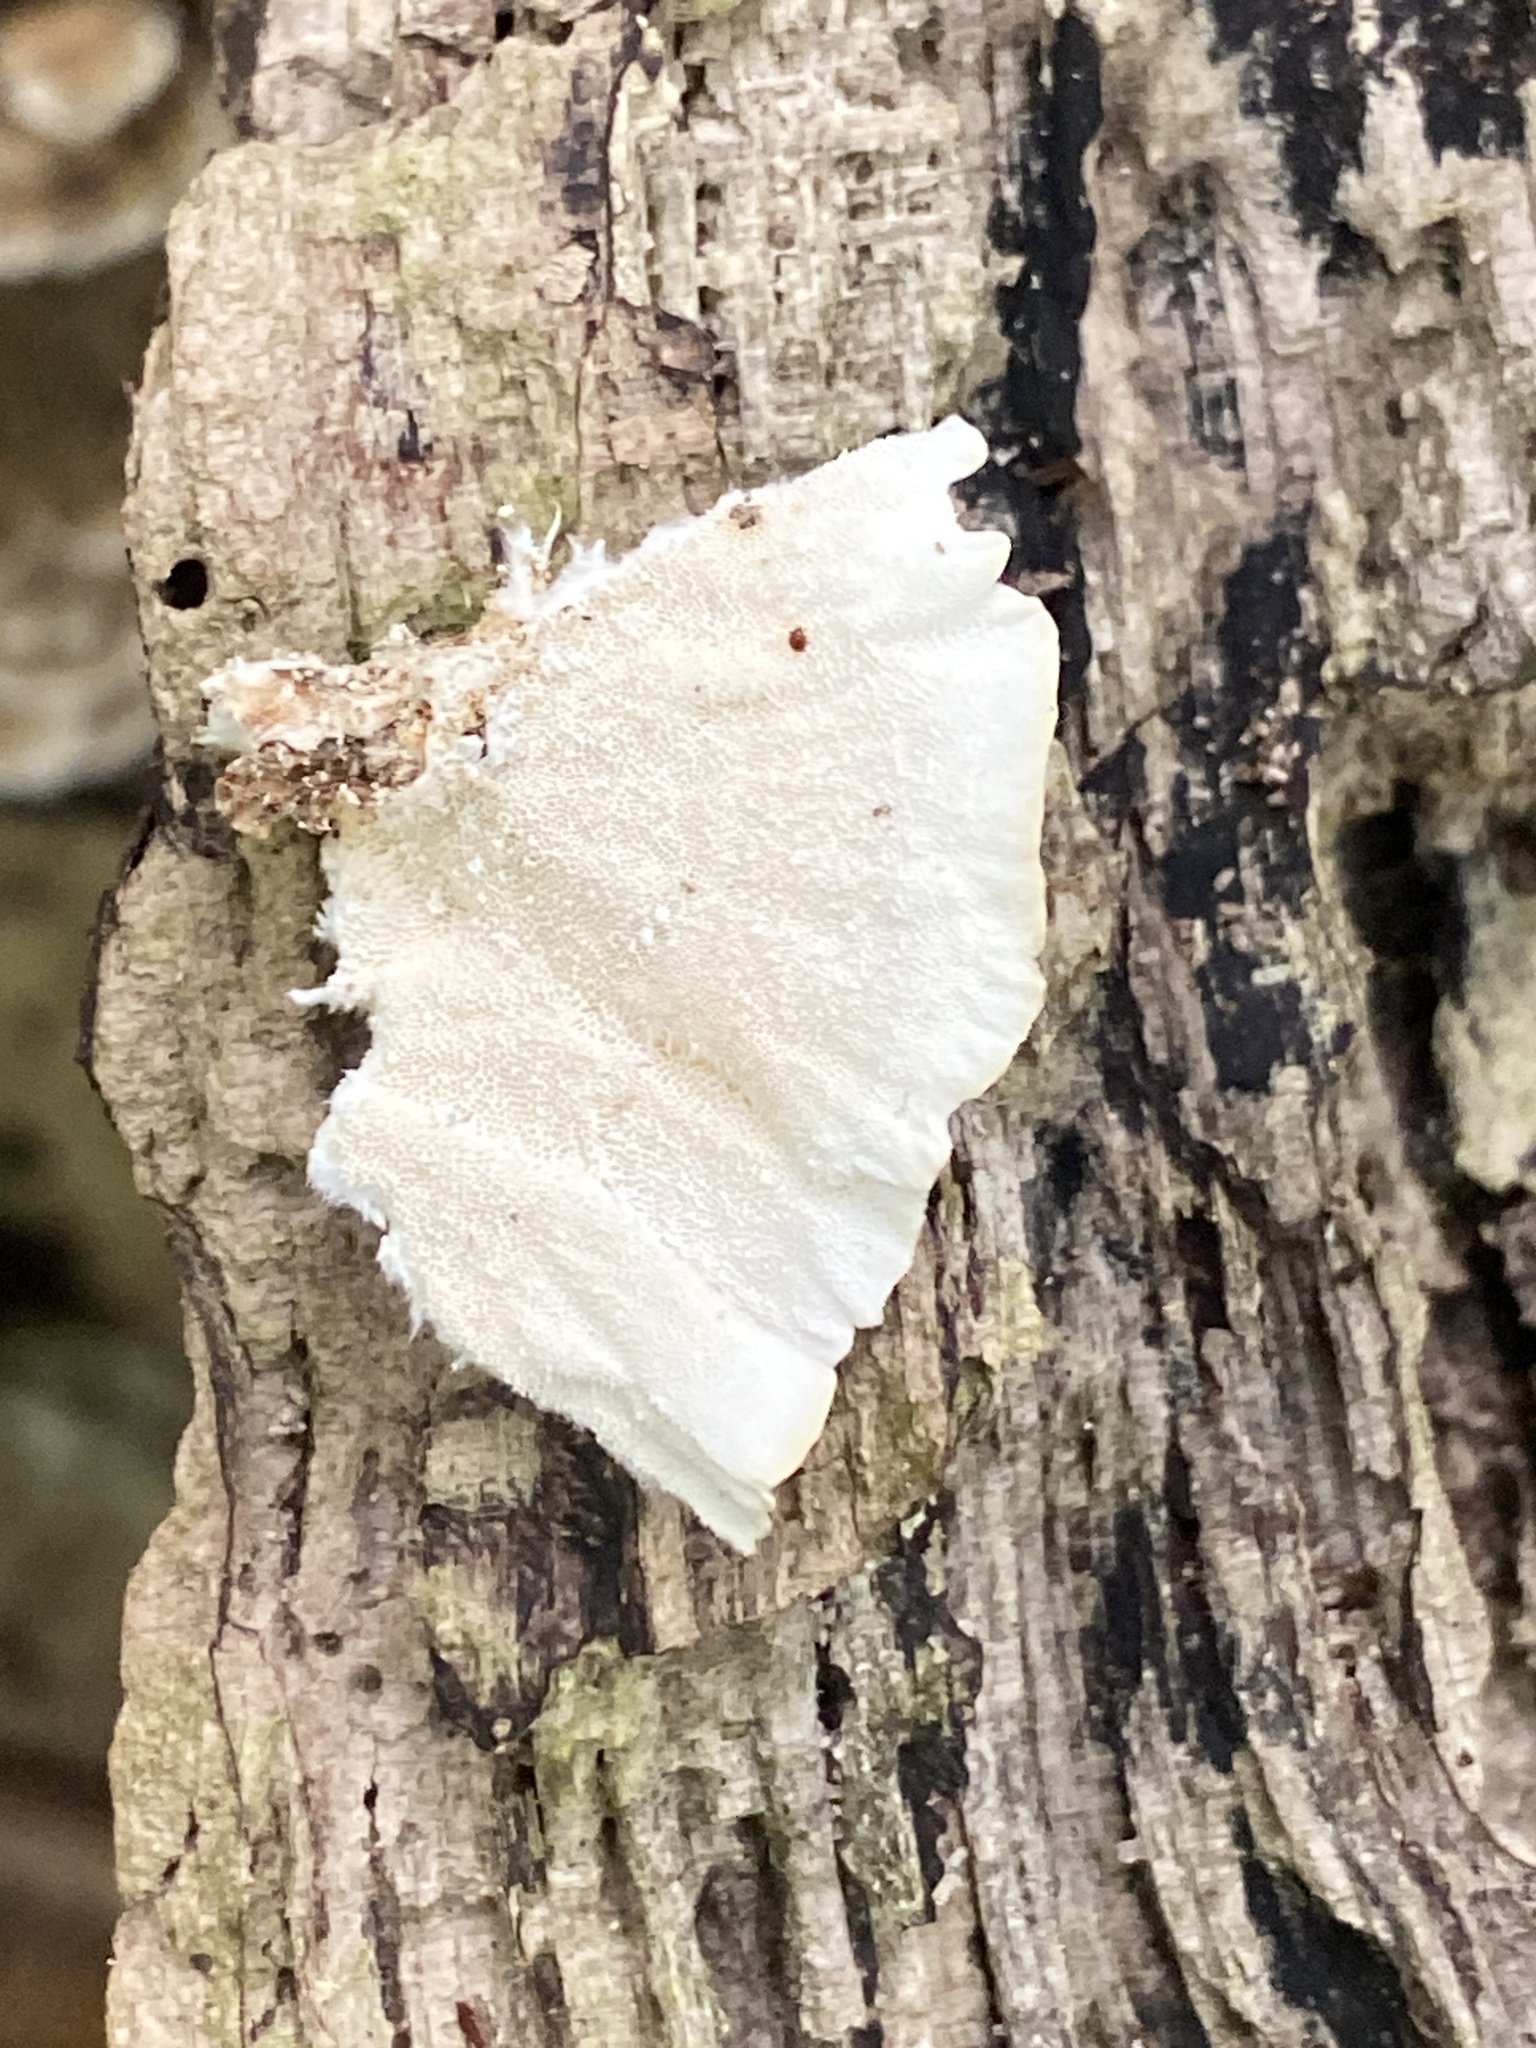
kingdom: Fungi
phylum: Basidiomycota
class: Agaricomycetes
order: Polyporales
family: Polyporaceae
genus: Trametes
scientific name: Trametes versicolor
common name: Turkeytail
